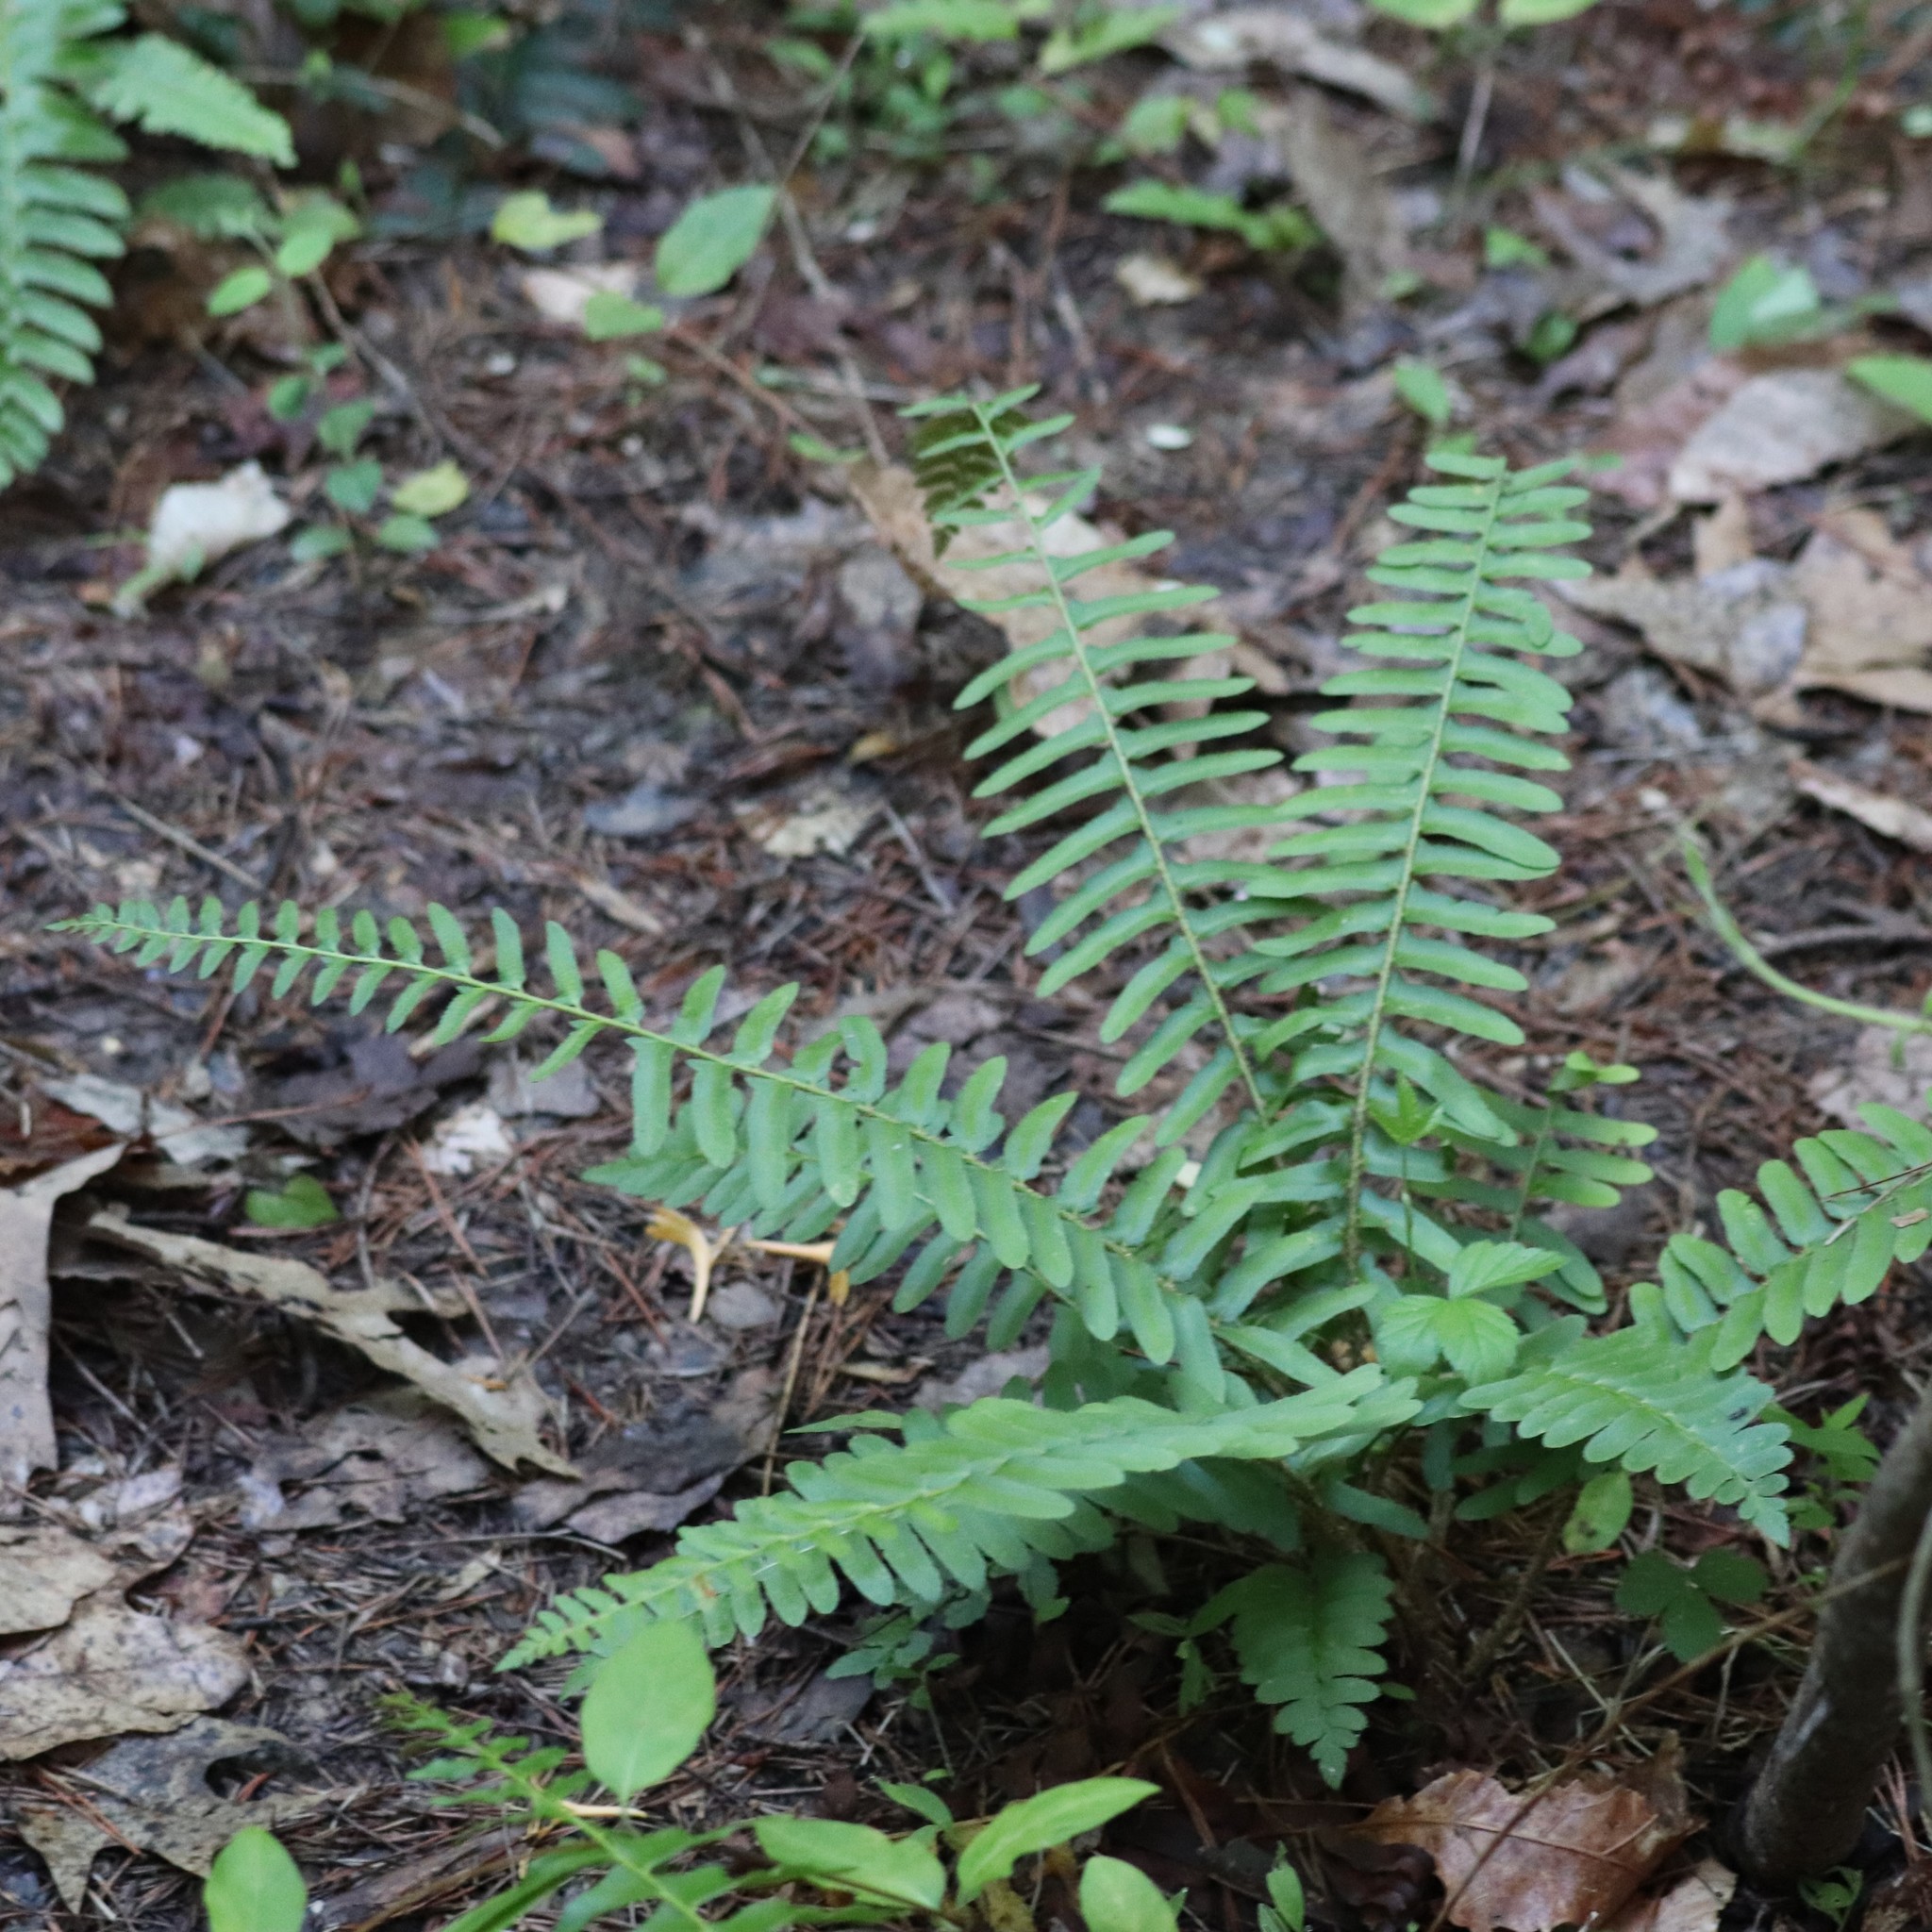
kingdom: Plantae
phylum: Tracheophyta
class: Polypodiopsida
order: Polypodiales
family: Dryopteridaceae
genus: Polystichum
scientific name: Polystichum acrostichoides
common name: Christmas fern
